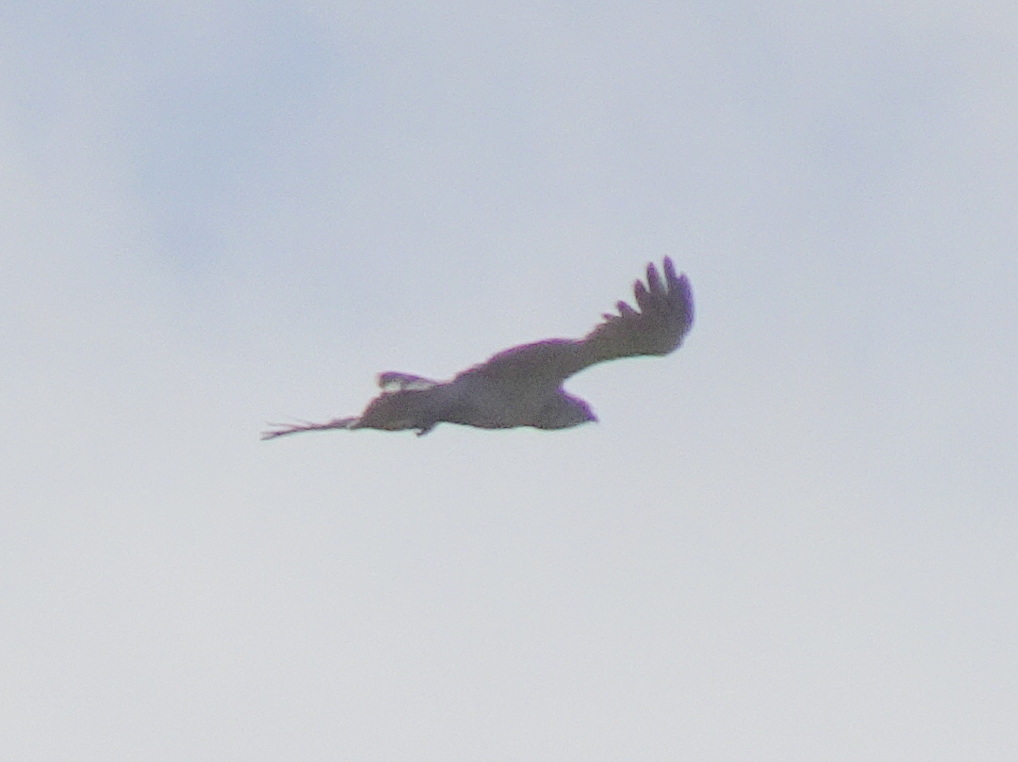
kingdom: Animalia
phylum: Chordata
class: Aves
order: Accipitriformes
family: Accipitridae
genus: Circaetus
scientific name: Circaetus gallicus
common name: Short-toed snake eagle
